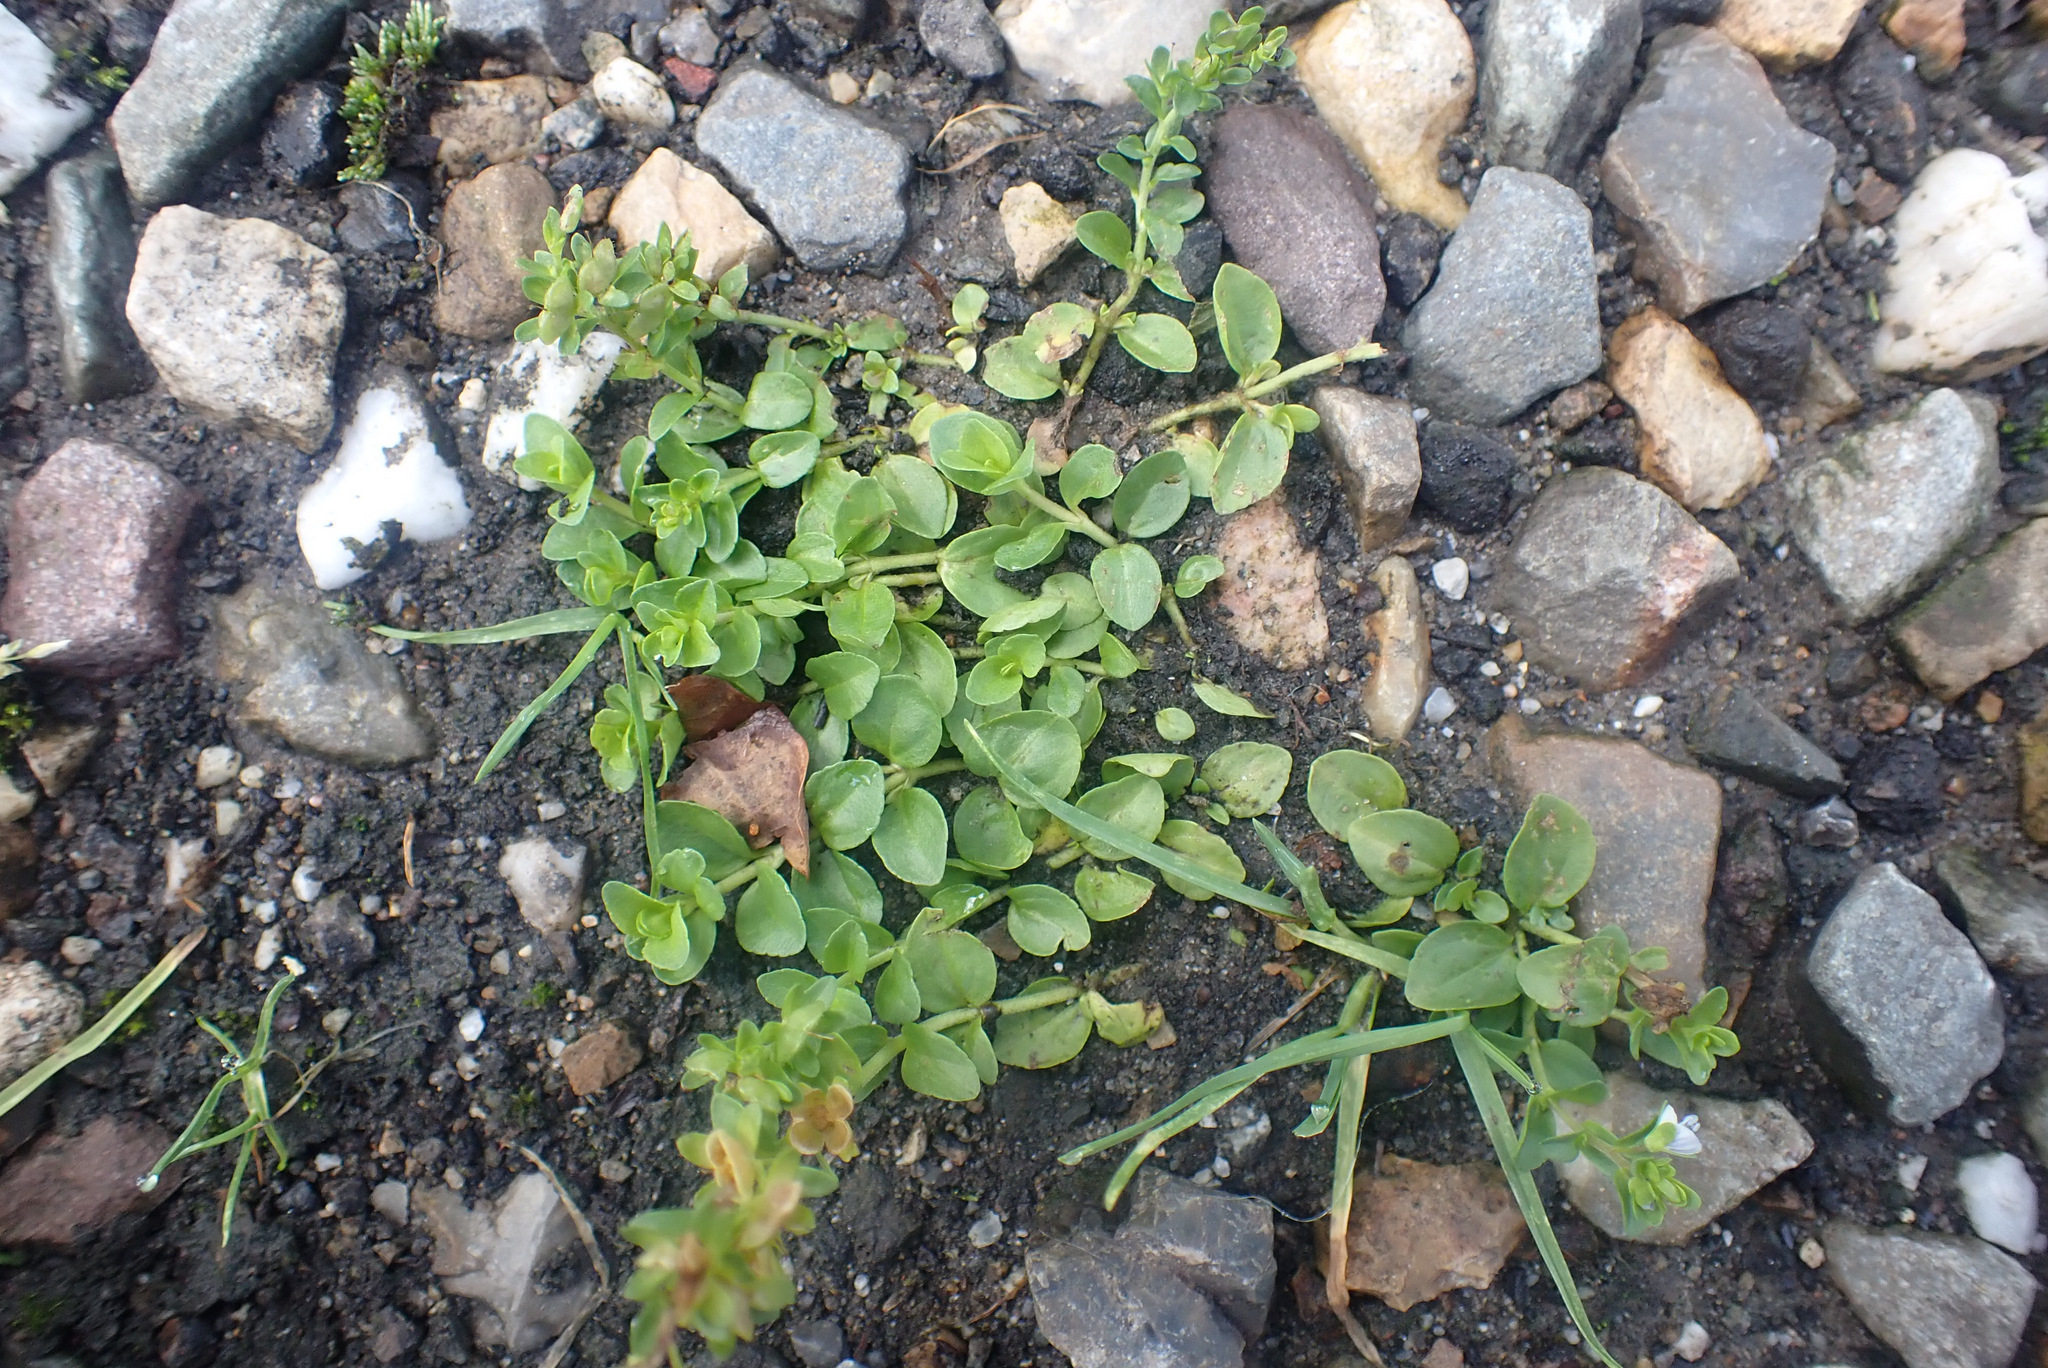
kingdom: Plantae
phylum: Tracheophyta
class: Magnoliopsida
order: Lamiales
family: Plantaginaceae
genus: Veronica
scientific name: Veronica serpyllifolia
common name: Thyme-leaved speedwell
